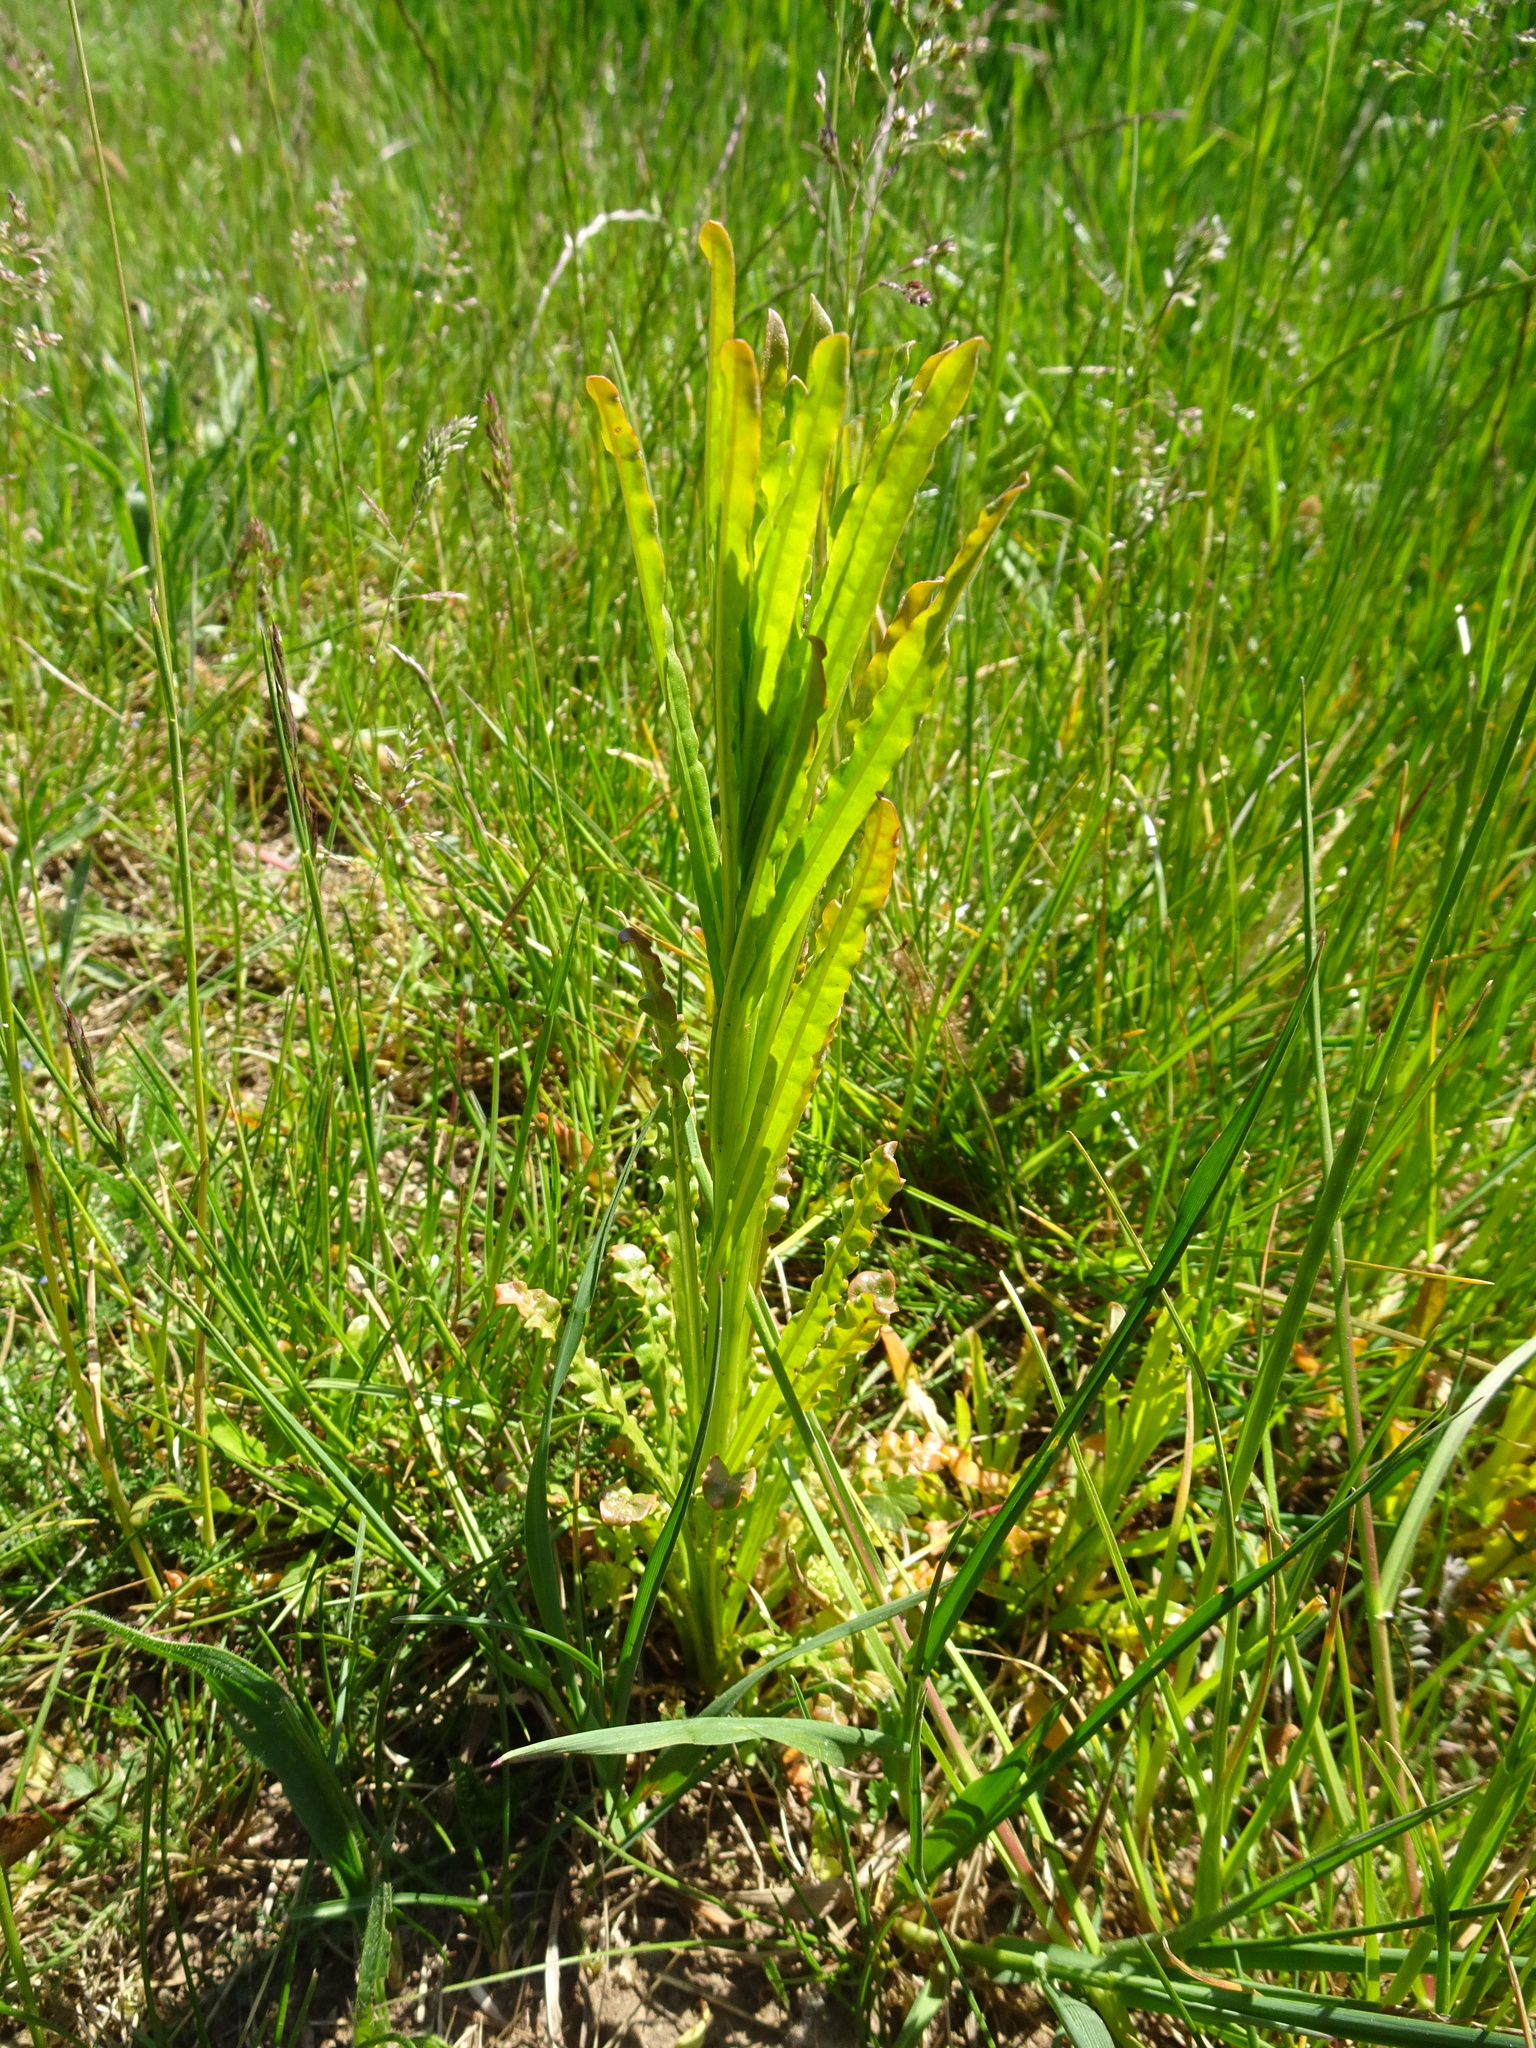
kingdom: Plantae
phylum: Tracheophyta
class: Magnoliopsida
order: Brassicales
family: Resedaceae
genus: Reseda
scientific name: Reseda luteola
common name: Weld
